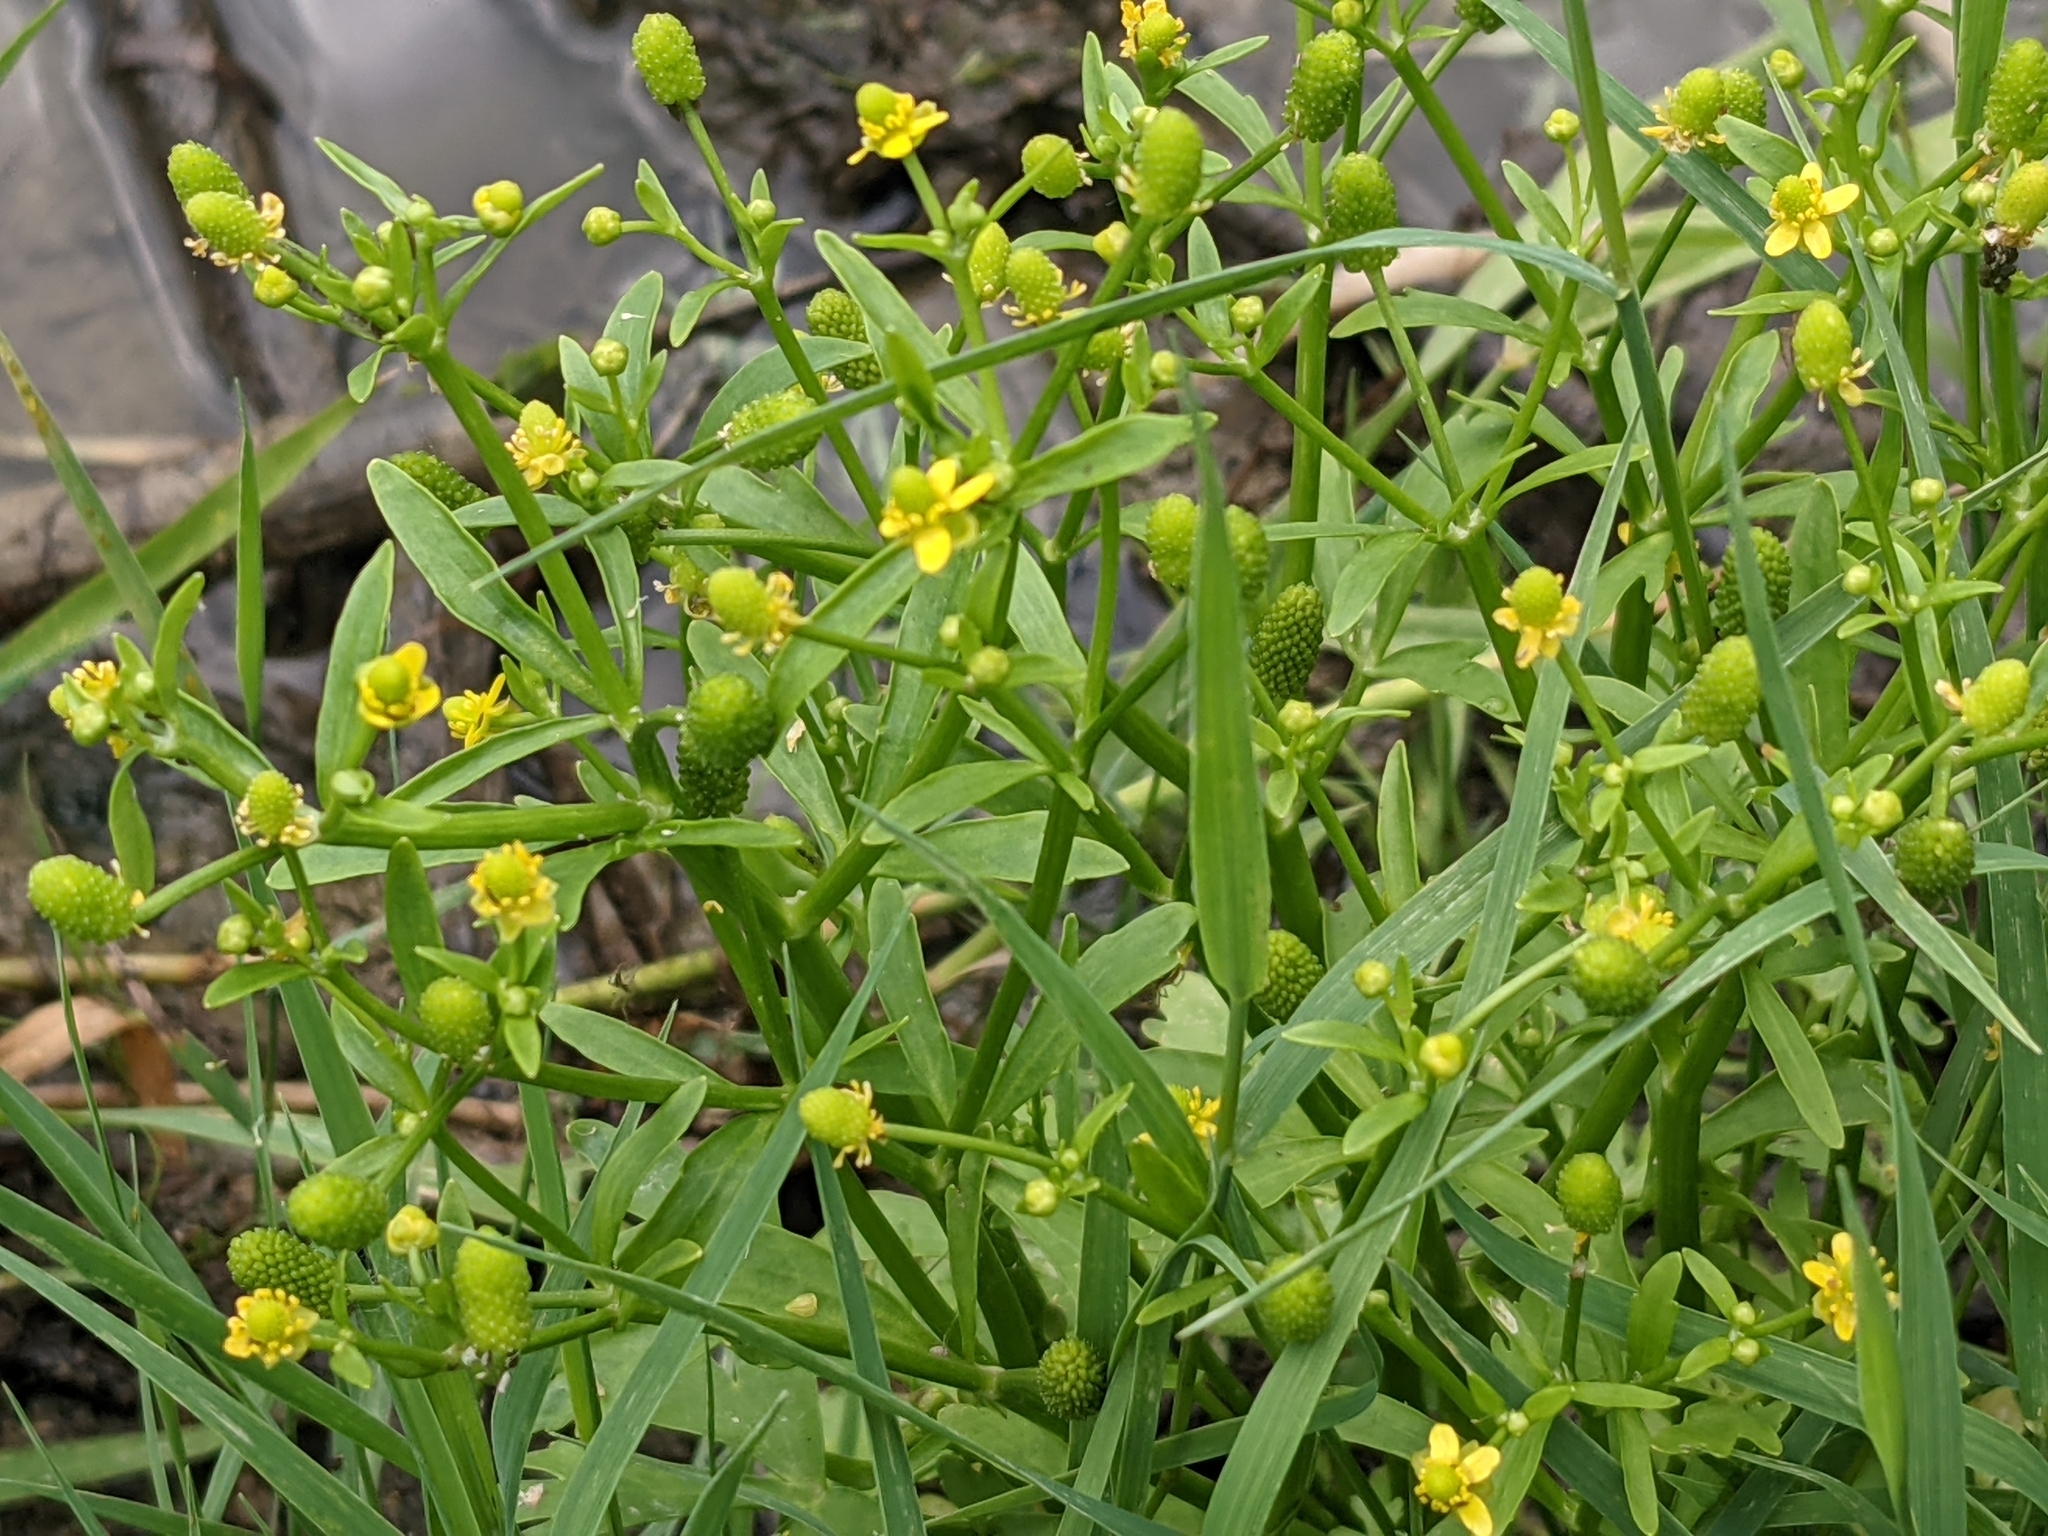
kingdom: Plantae
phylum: Tracheophyta
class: Magnoliopsida
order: Ranunculales
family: Ranunculaceae
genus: Ranunculus
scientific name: Ranunculus sceleratus
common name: Celery-leaved buttercup
